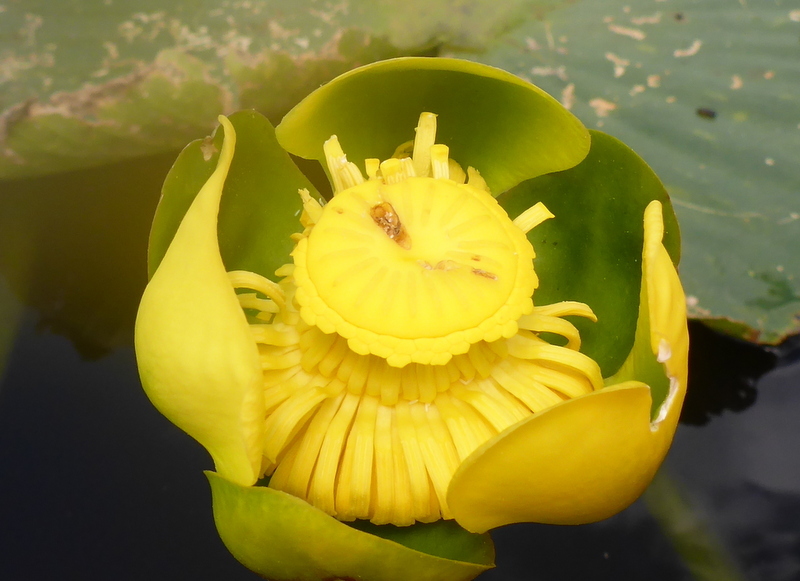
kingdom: Plantae
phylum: Tracheophyta
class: Magnoliopsida
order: Nymphaeales
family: Nymphaeaceae
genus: Nuphar
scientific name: Nuphar advena
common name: Spatter-dock
